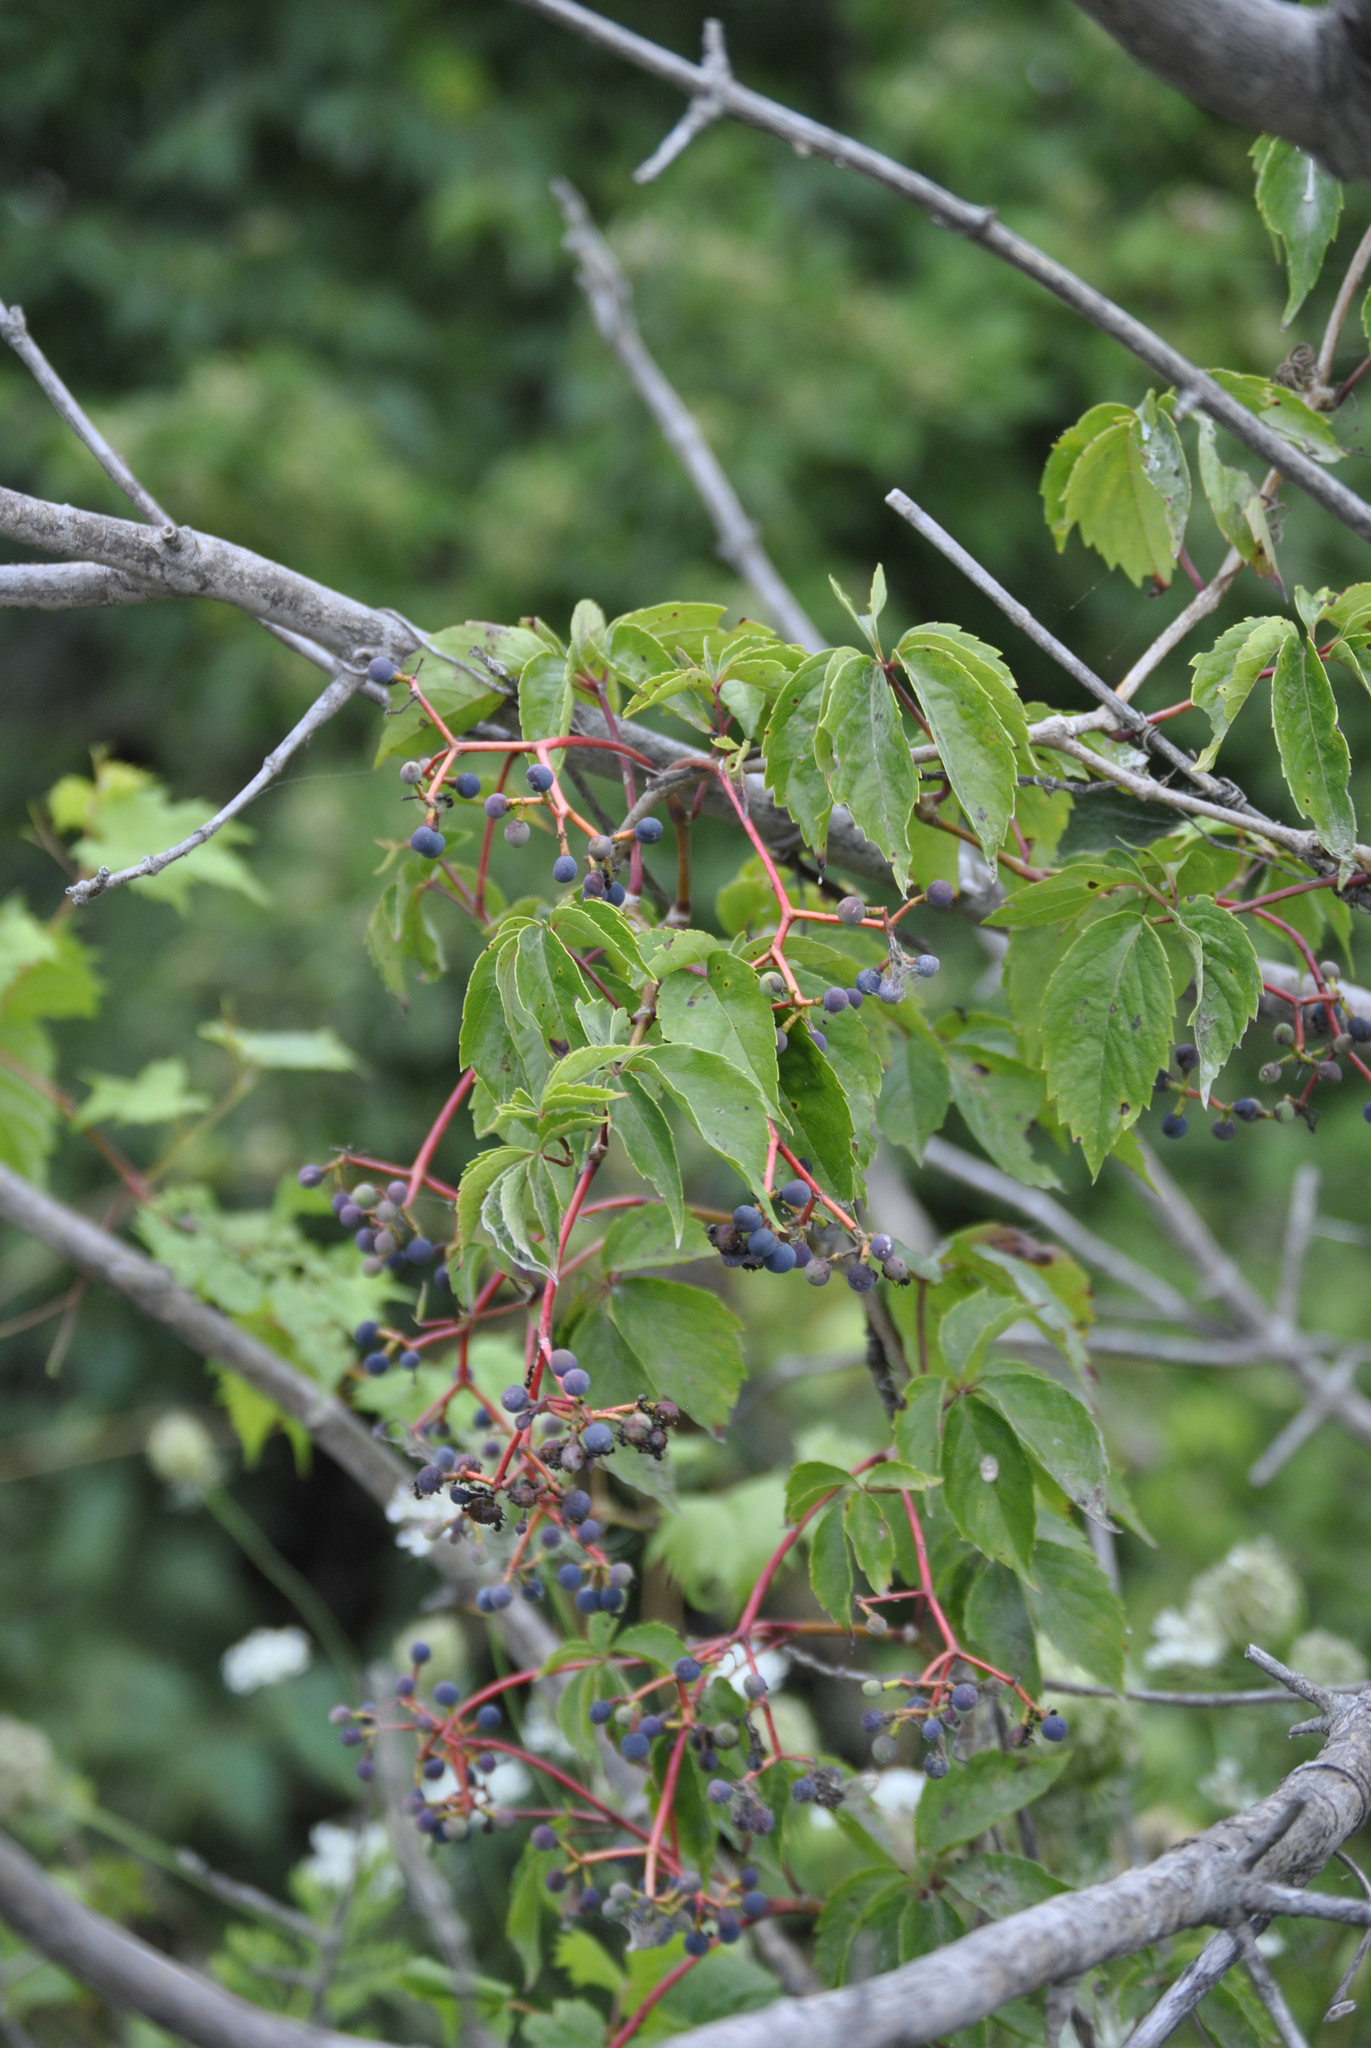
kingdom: Plantae
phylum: Tracheophyta
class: Magnoliopsida
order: Vitales
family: Vitaceae
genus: Parthenocissus
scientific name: Parthenocissus quinquefolia
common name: Virginia-creeper
